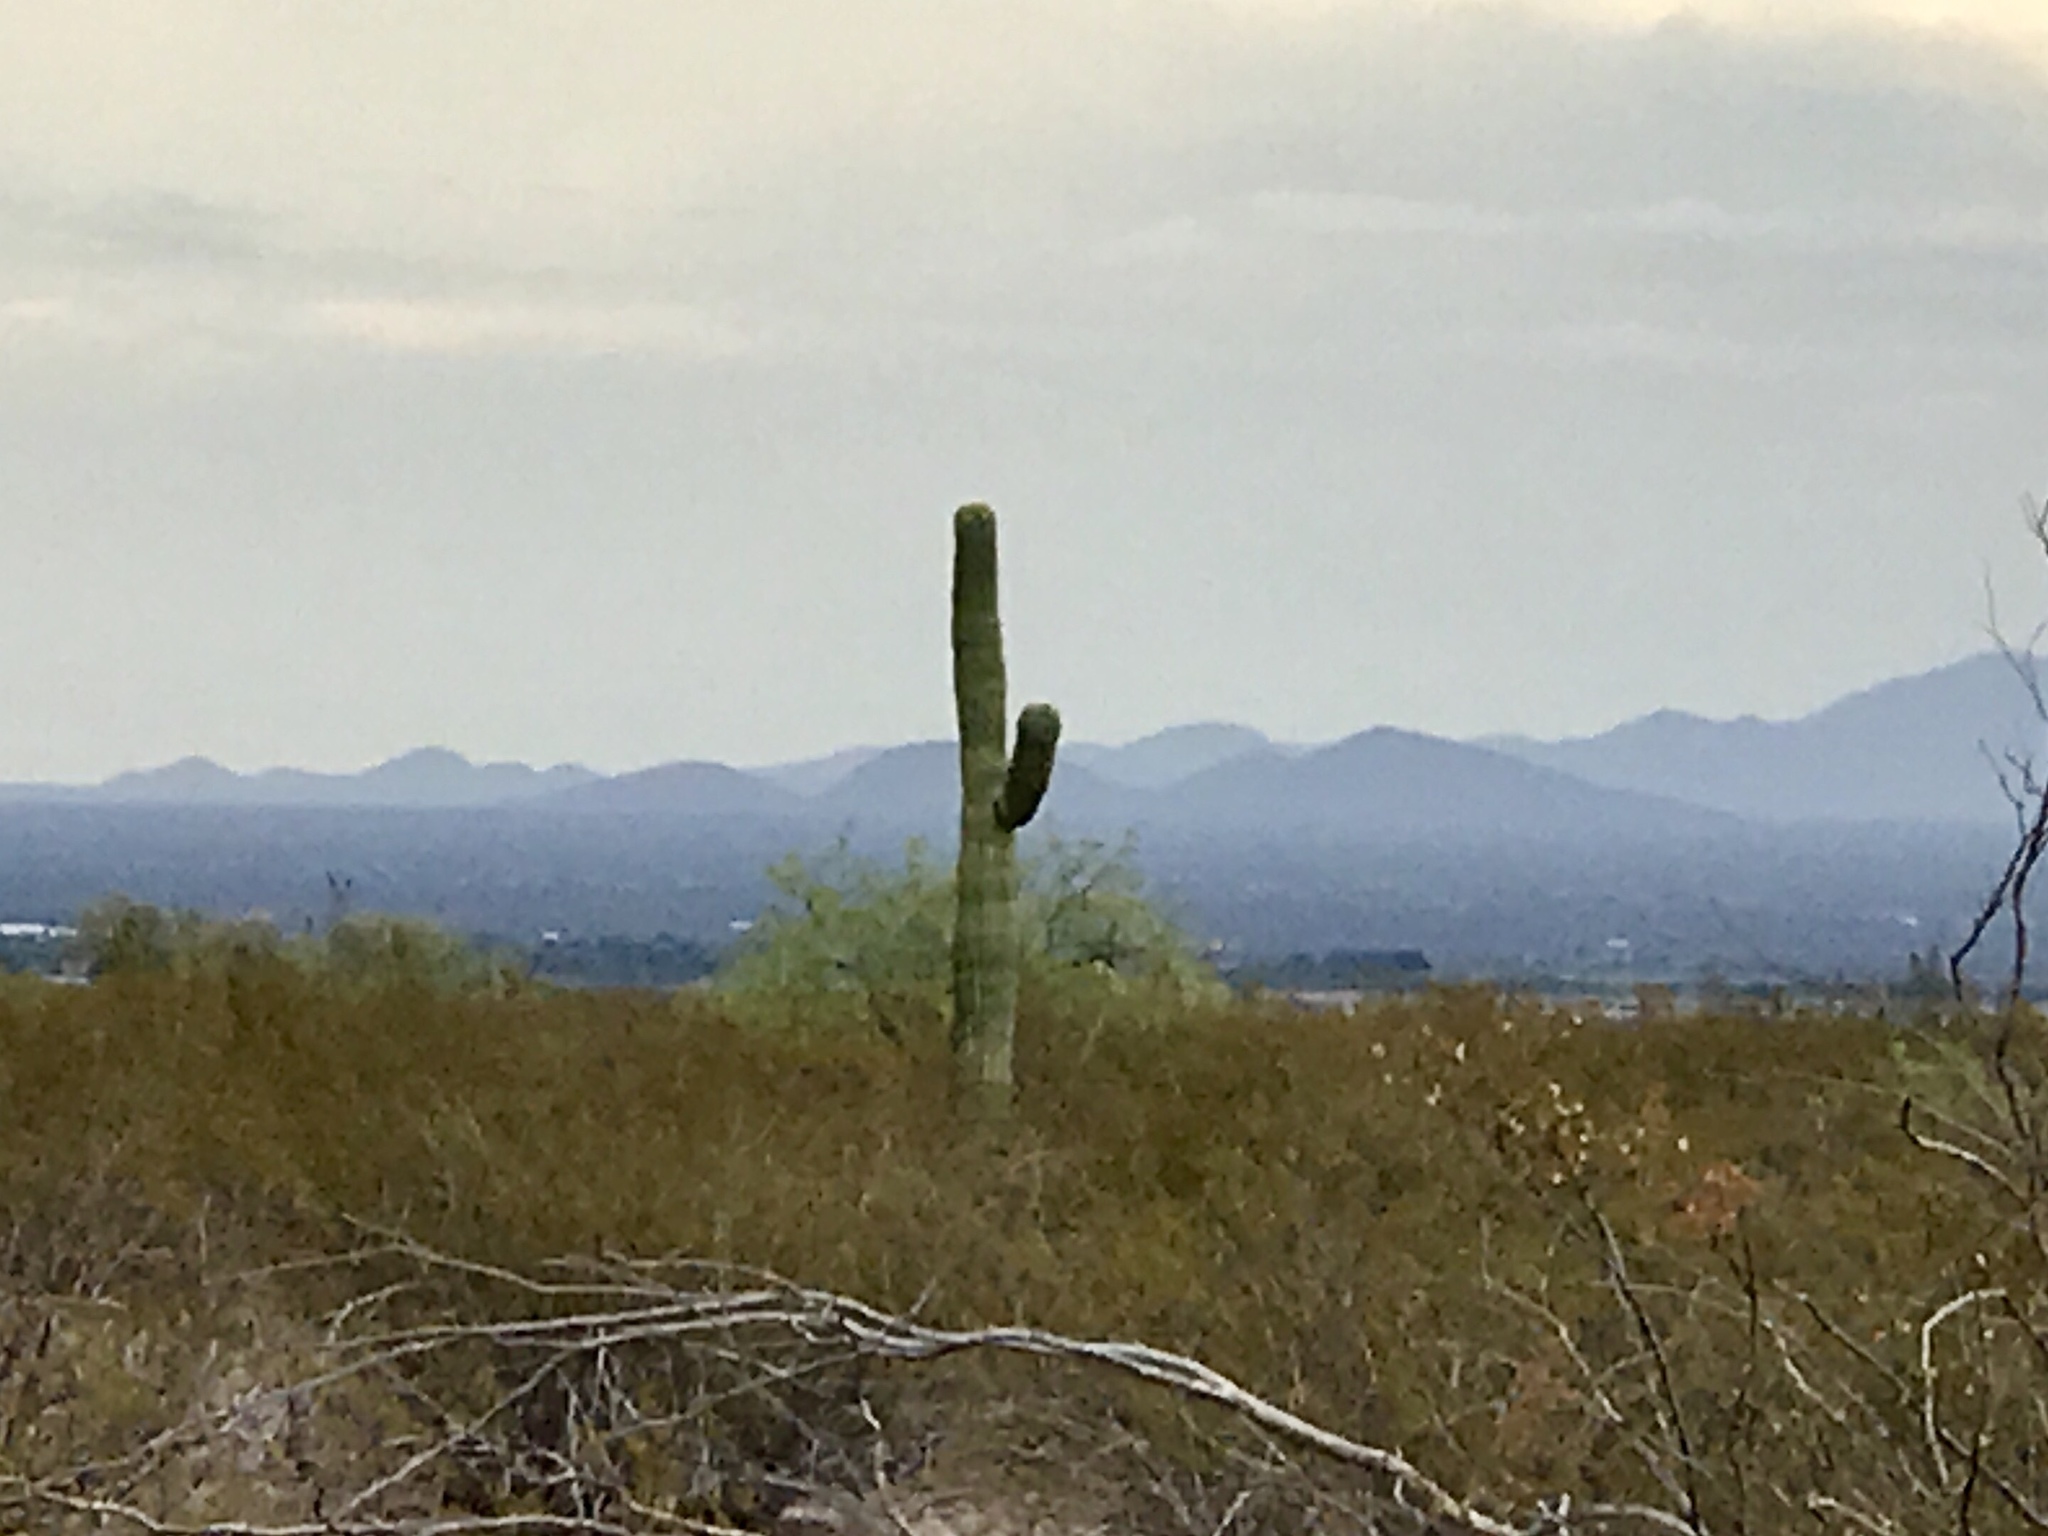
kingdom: Plantae
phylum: Tracheophyta
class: Magnoliopsida
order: Caryophyllales
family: Cactaceae
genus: Carnegiea
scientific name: Carnegiea gigantea
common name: Saguaro
